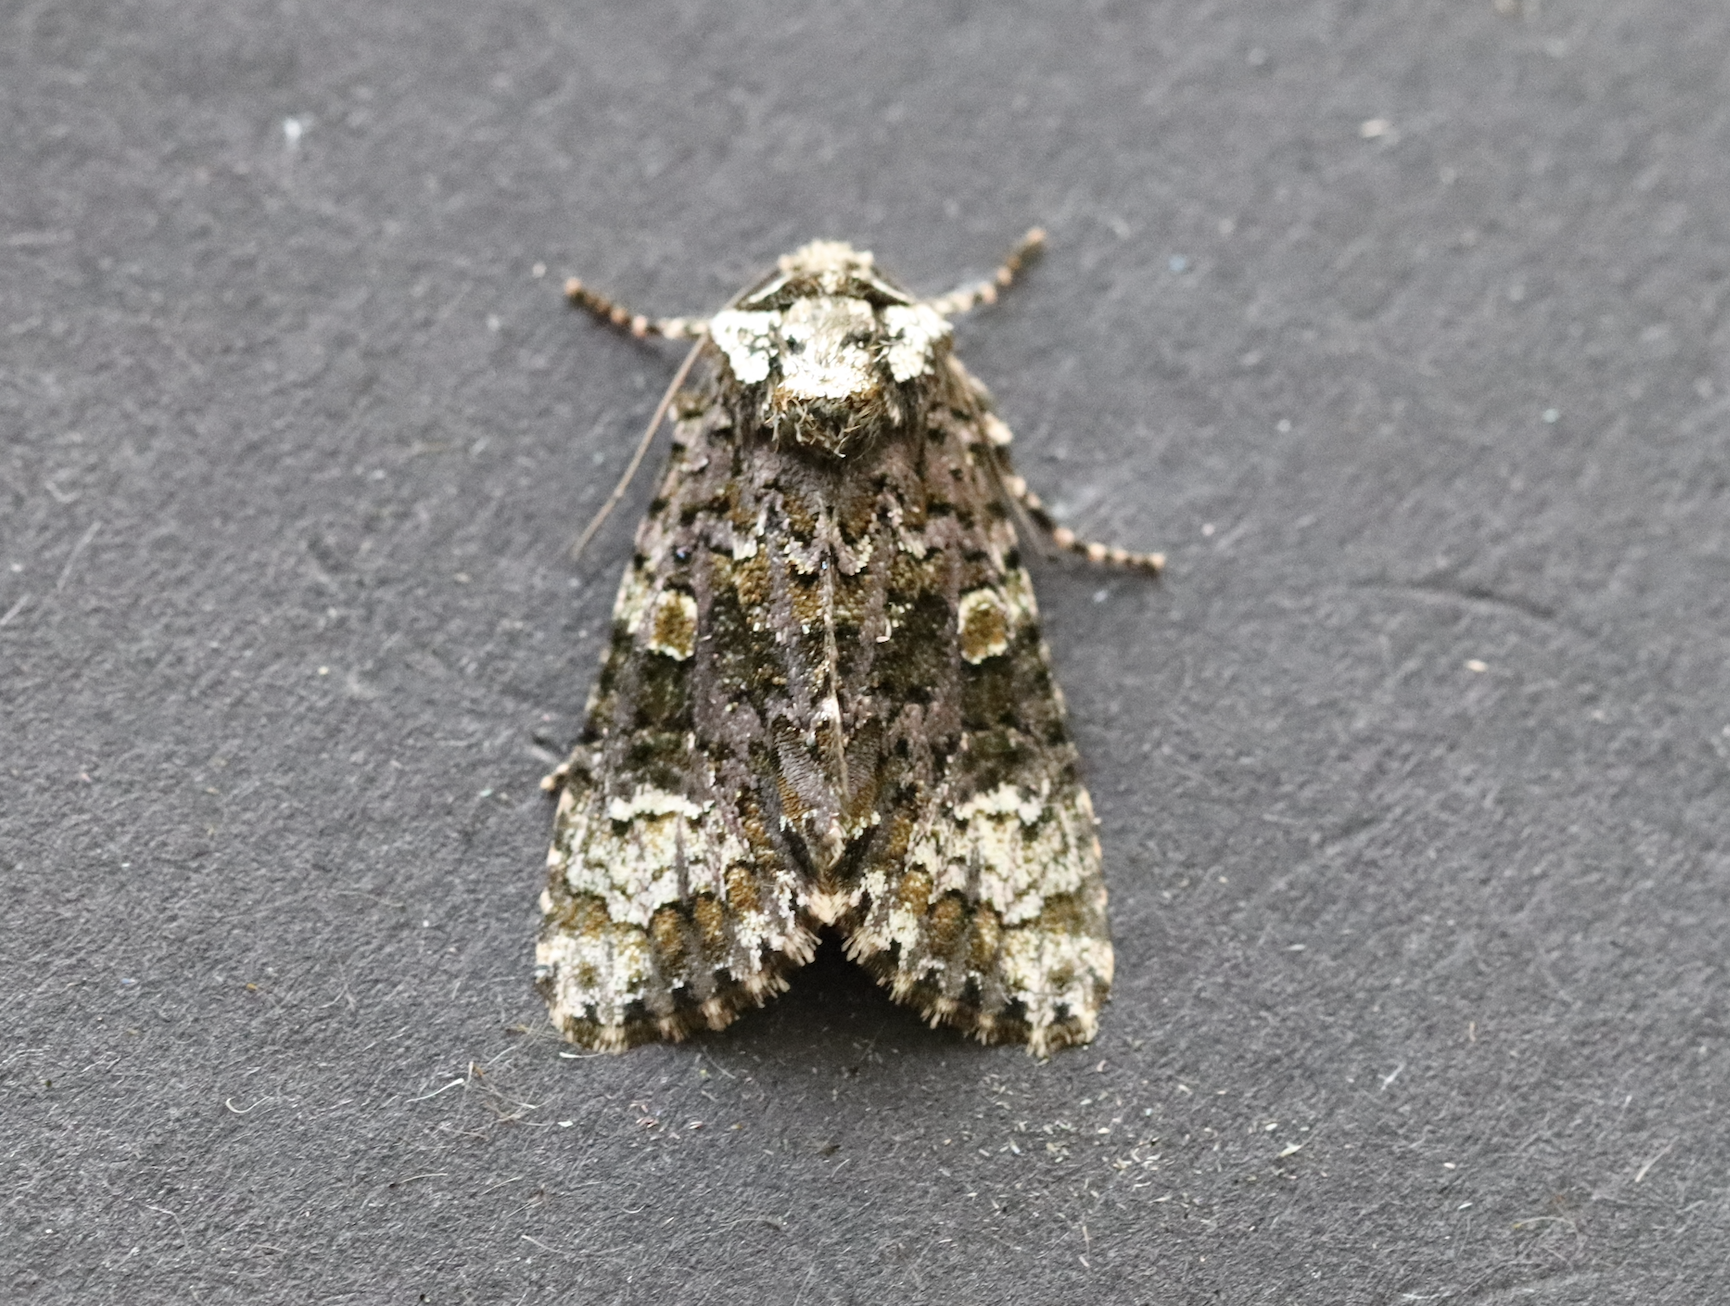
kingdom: Animalia
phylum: Arthropoda
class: Insecta
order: Lepidoptera
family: Noctuidae
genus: Craniophora
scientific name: Craniophora ligustri
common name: Coronet
